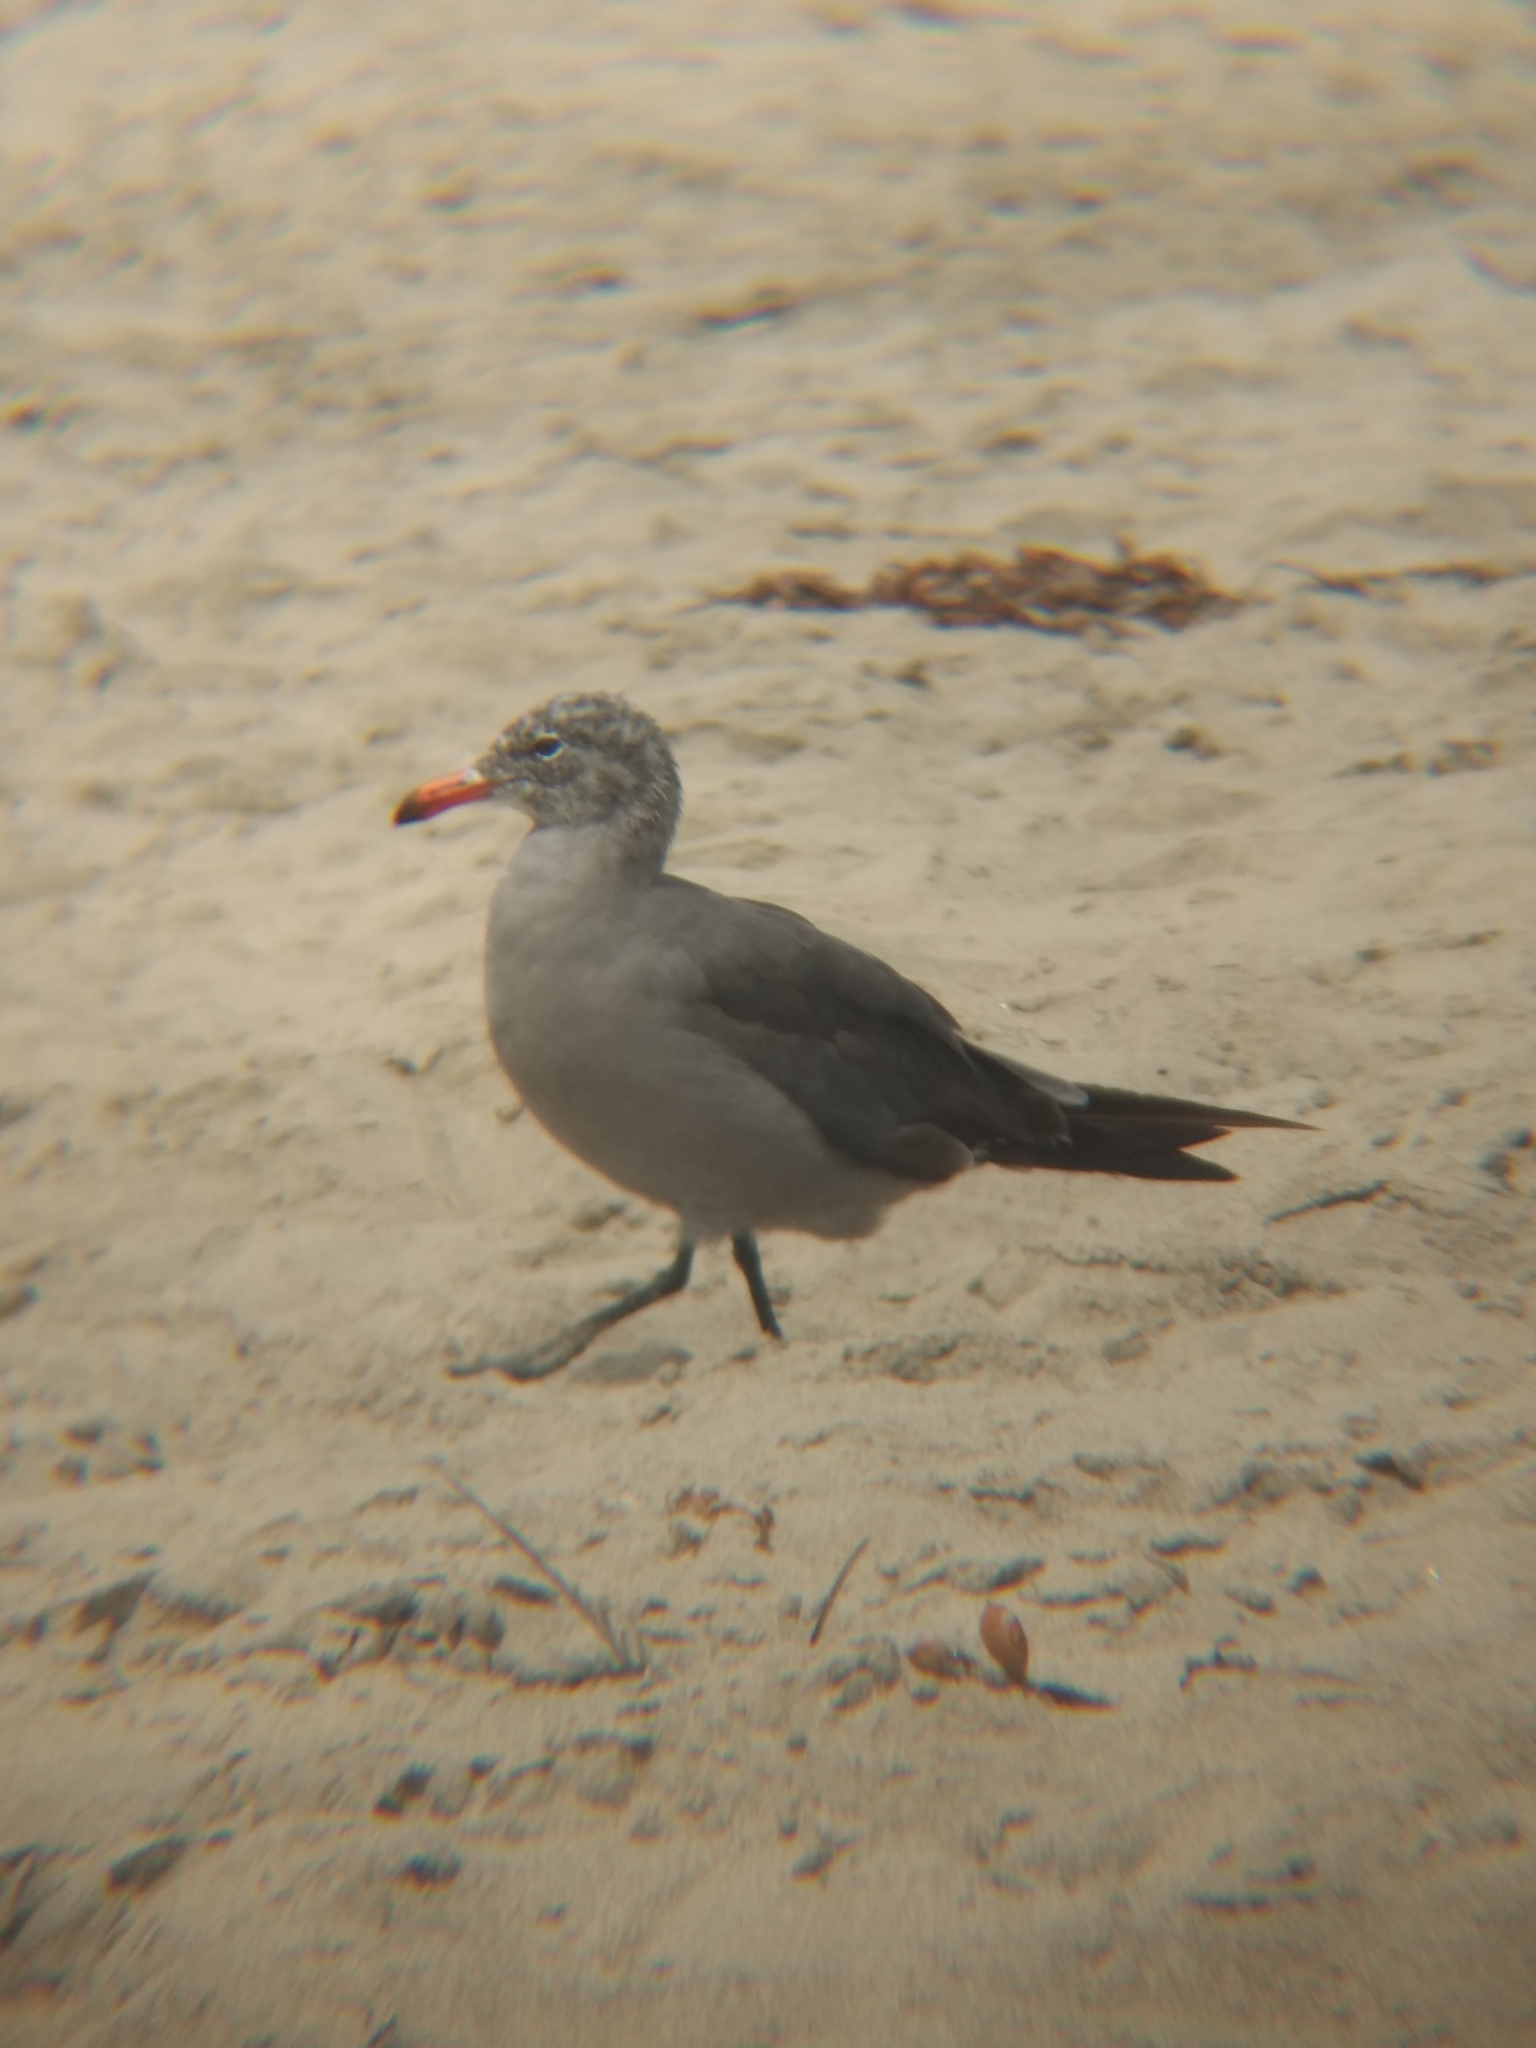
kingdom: Animalia
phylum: Chordata
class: Aves
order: Charadriiformes
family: Laridae
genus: Larus
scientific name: Larus heermanni
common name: Heermann's gull
